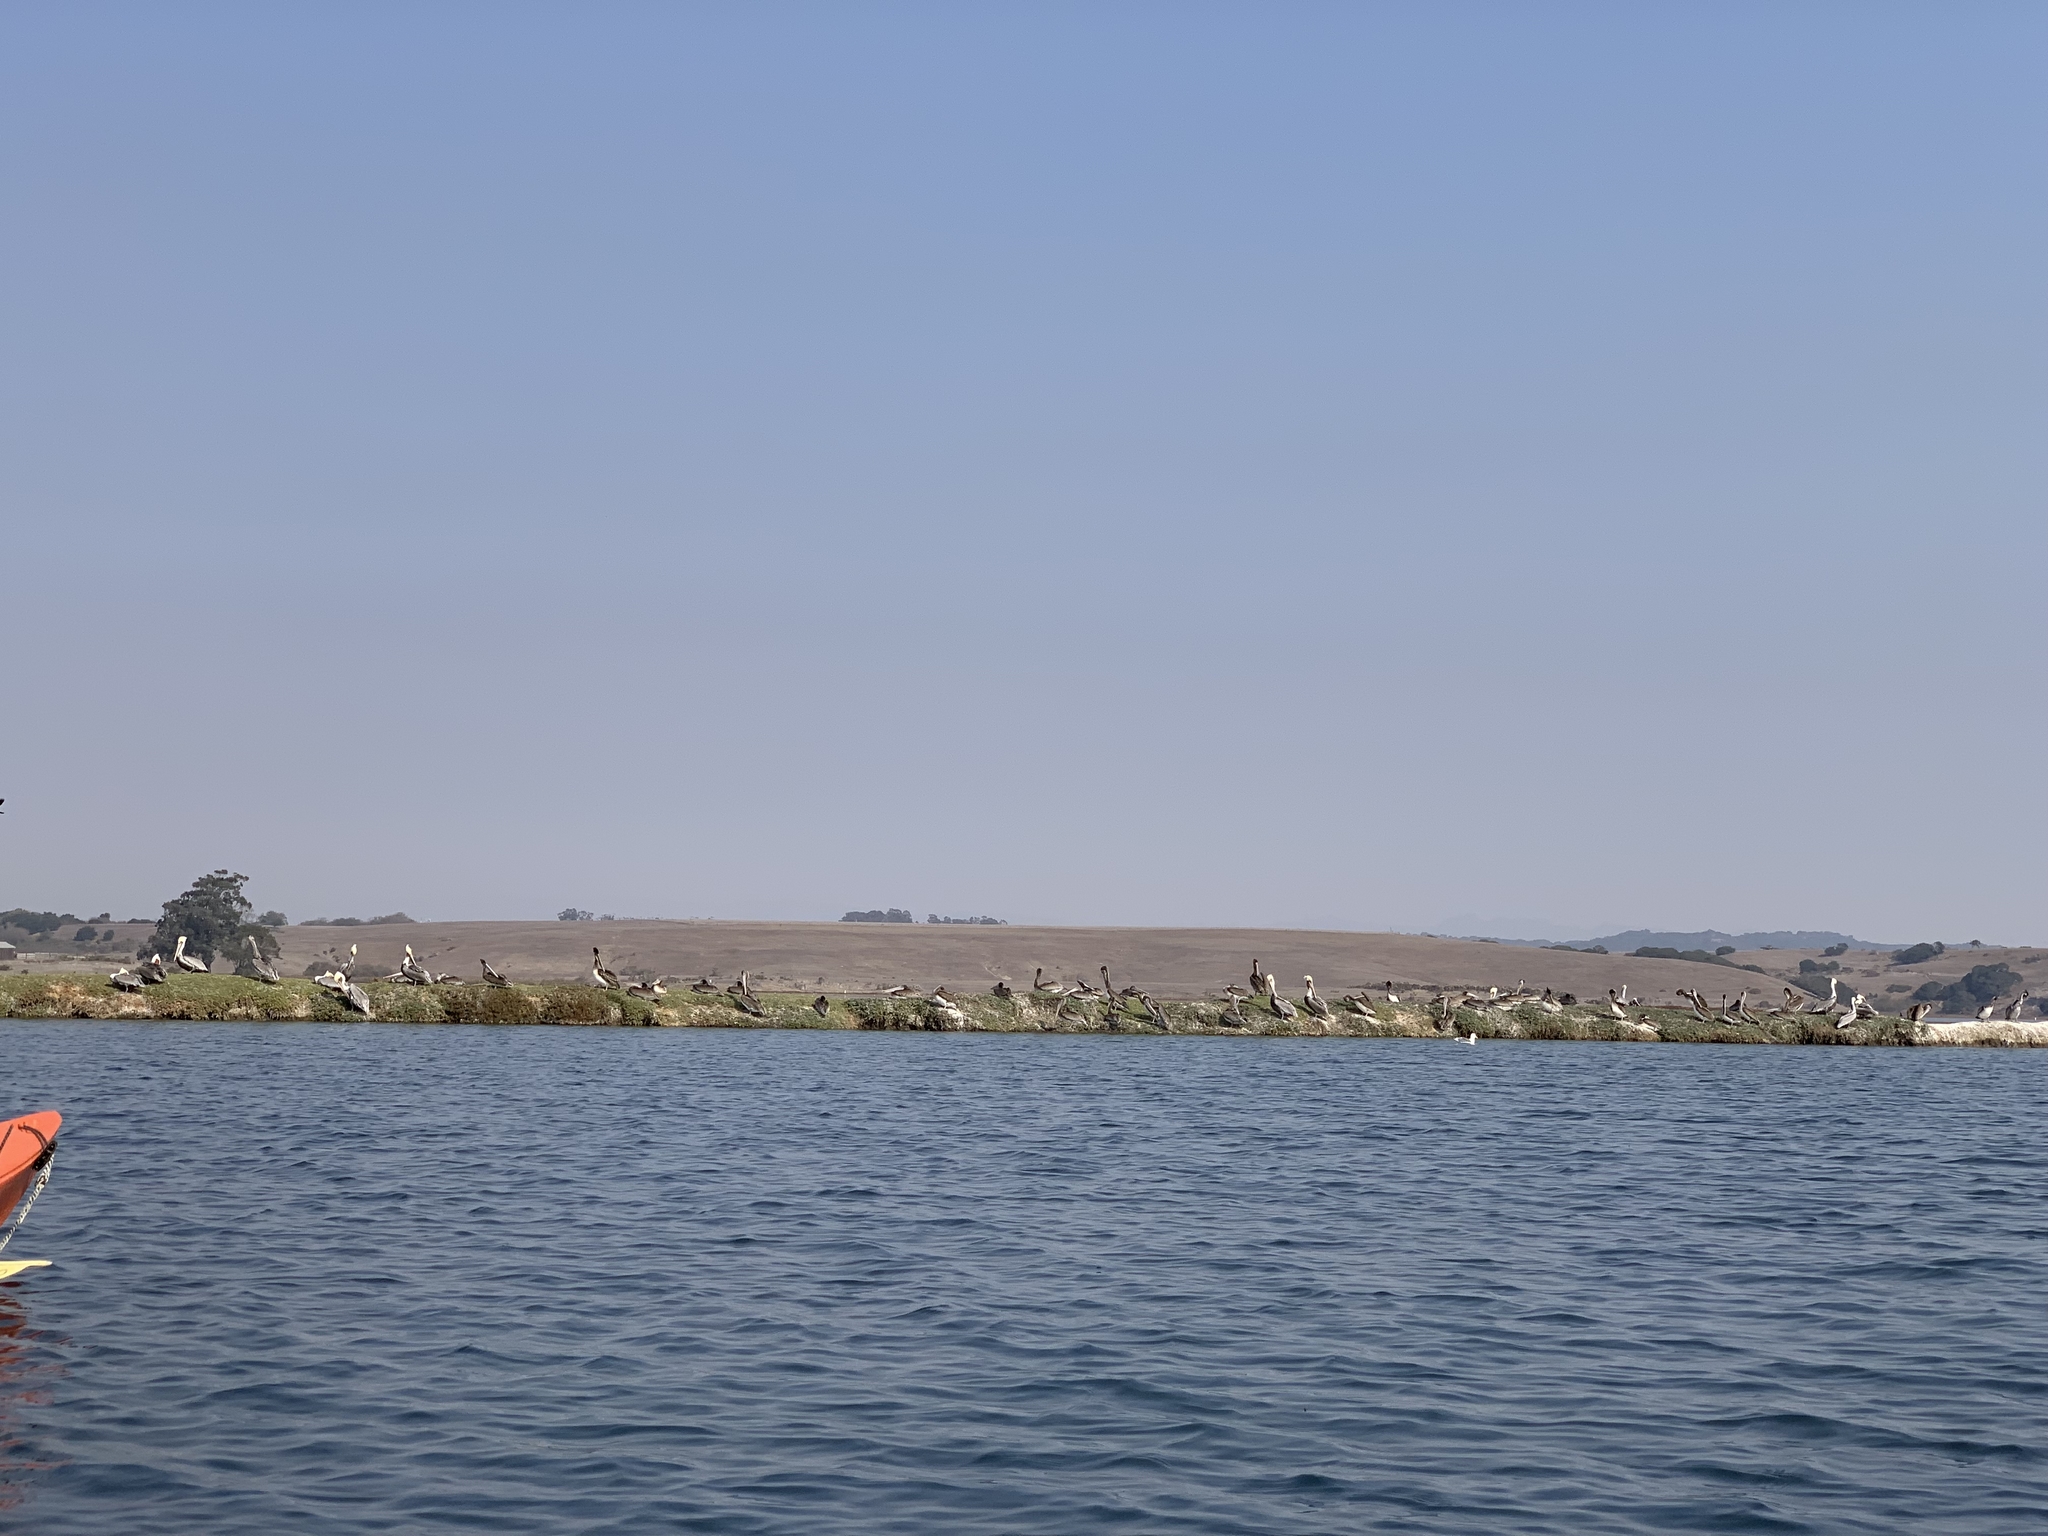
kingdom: Animalia
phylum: Chordata
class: Aves
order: Pelecaniformes
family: Pelecanidae
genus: Pelecanus
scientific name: Pelecanus occidentalis
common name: Brown pelican
